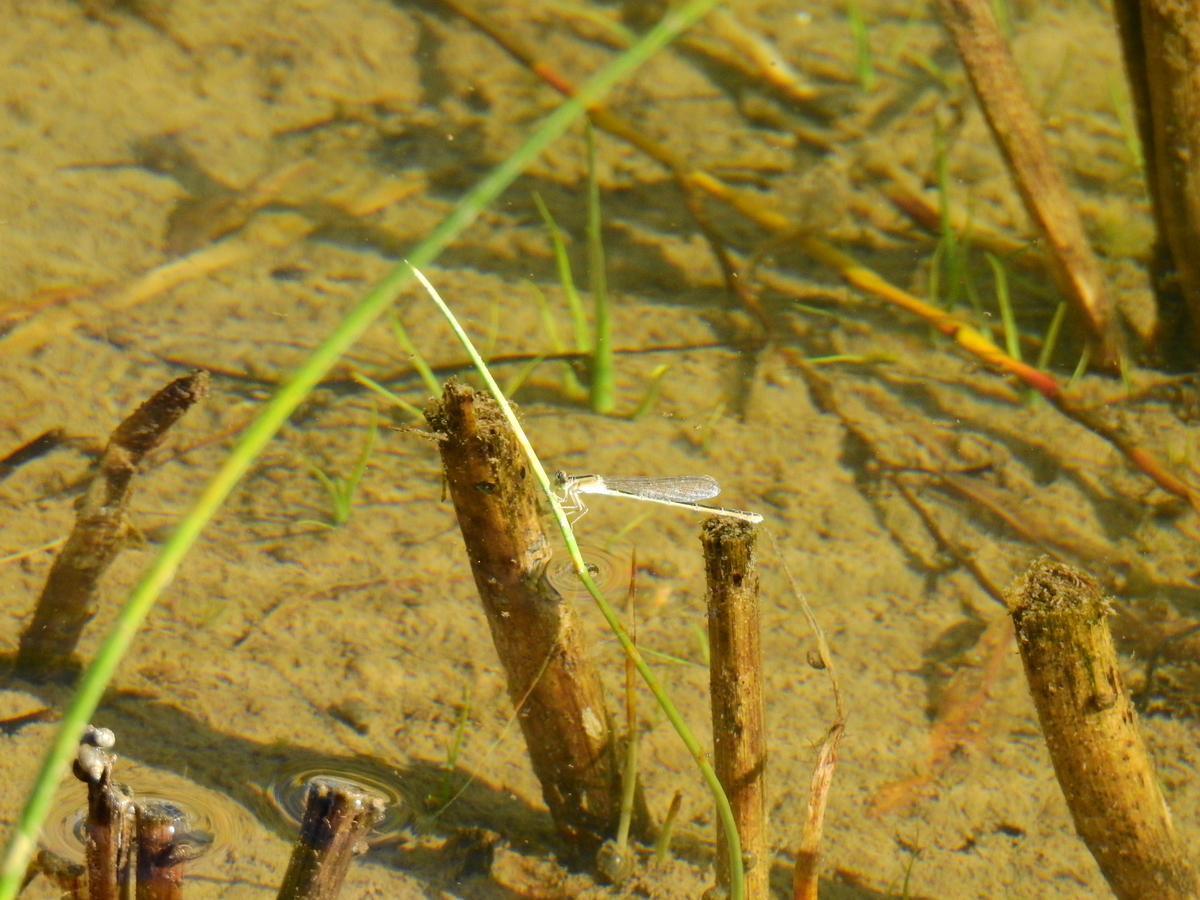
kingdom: Animalia
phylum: Arthropoda
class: Insecta
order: Odonata
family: Coenagrionidae
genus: Ischnura
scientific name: Ischnura fluviatilis
